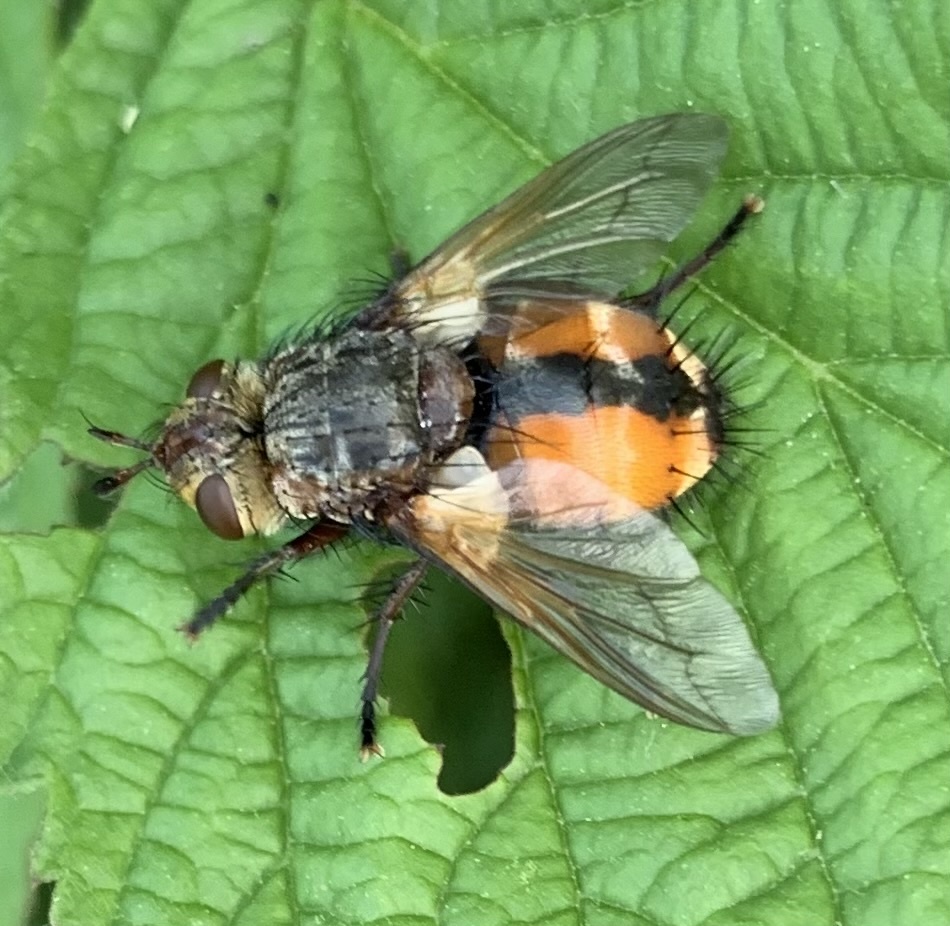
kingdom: Animalia
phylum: Arthropoda
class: Insecta
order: Diptera
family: Tachinidae
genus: Tachina
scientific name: Tachina fera
